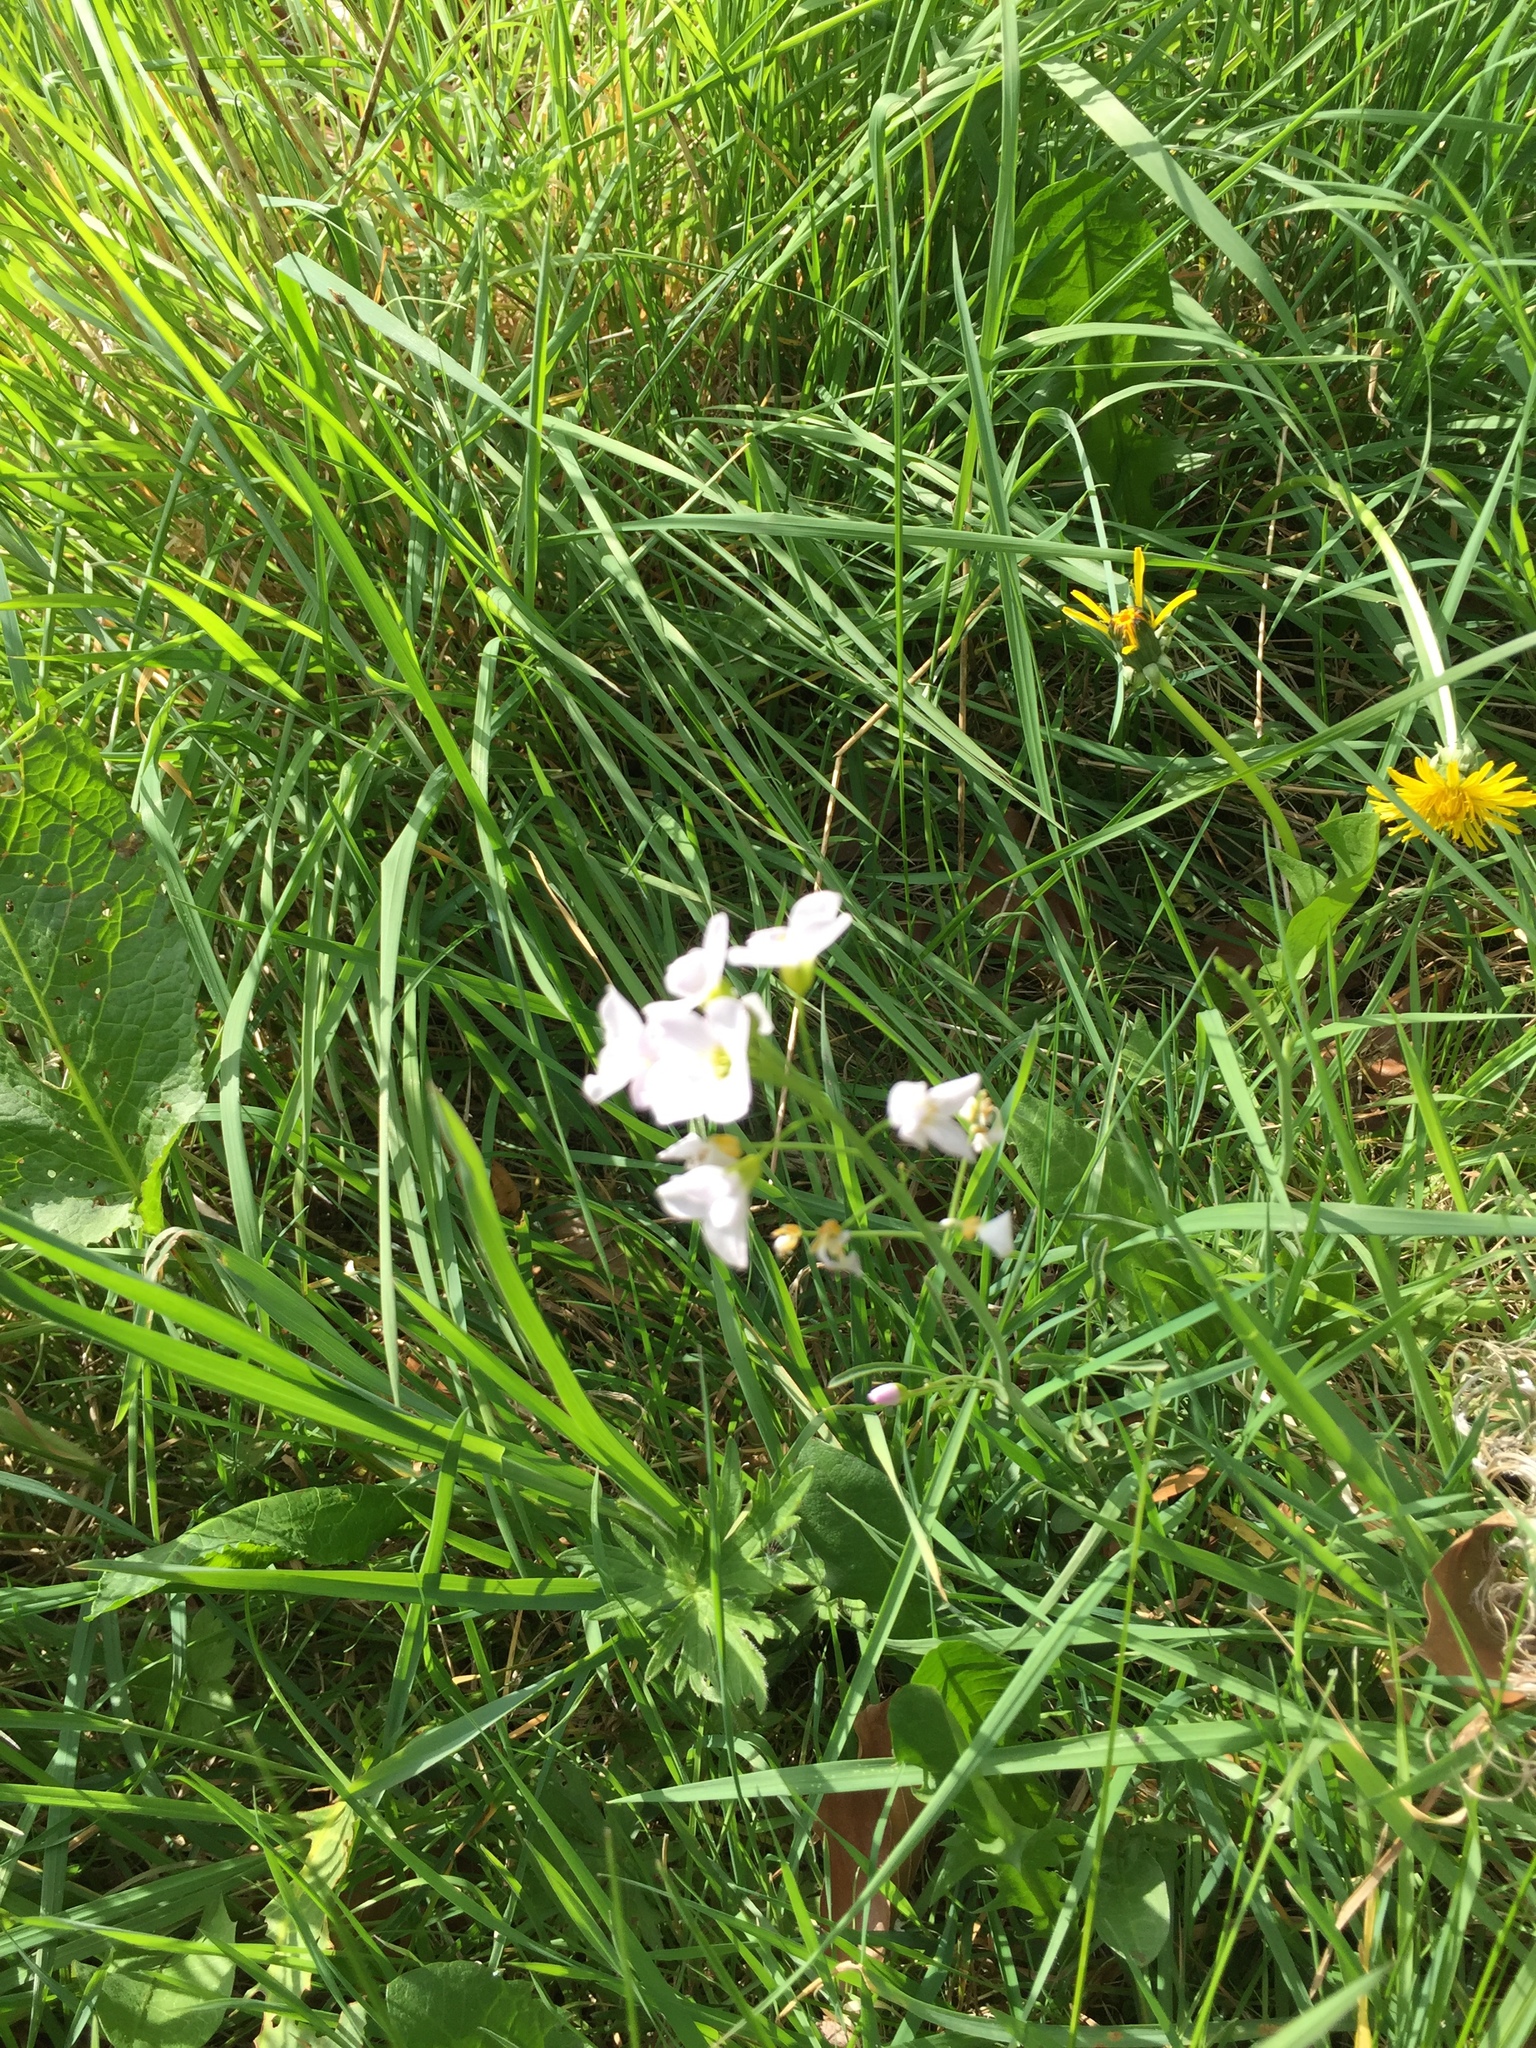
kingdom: Plantae
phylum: Tracheophyta
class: Magnoliopsida
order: Brassicales
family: Brassicaceae
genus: Cardamine
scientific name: Cardamine pratensis
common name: Cuckoo flower
